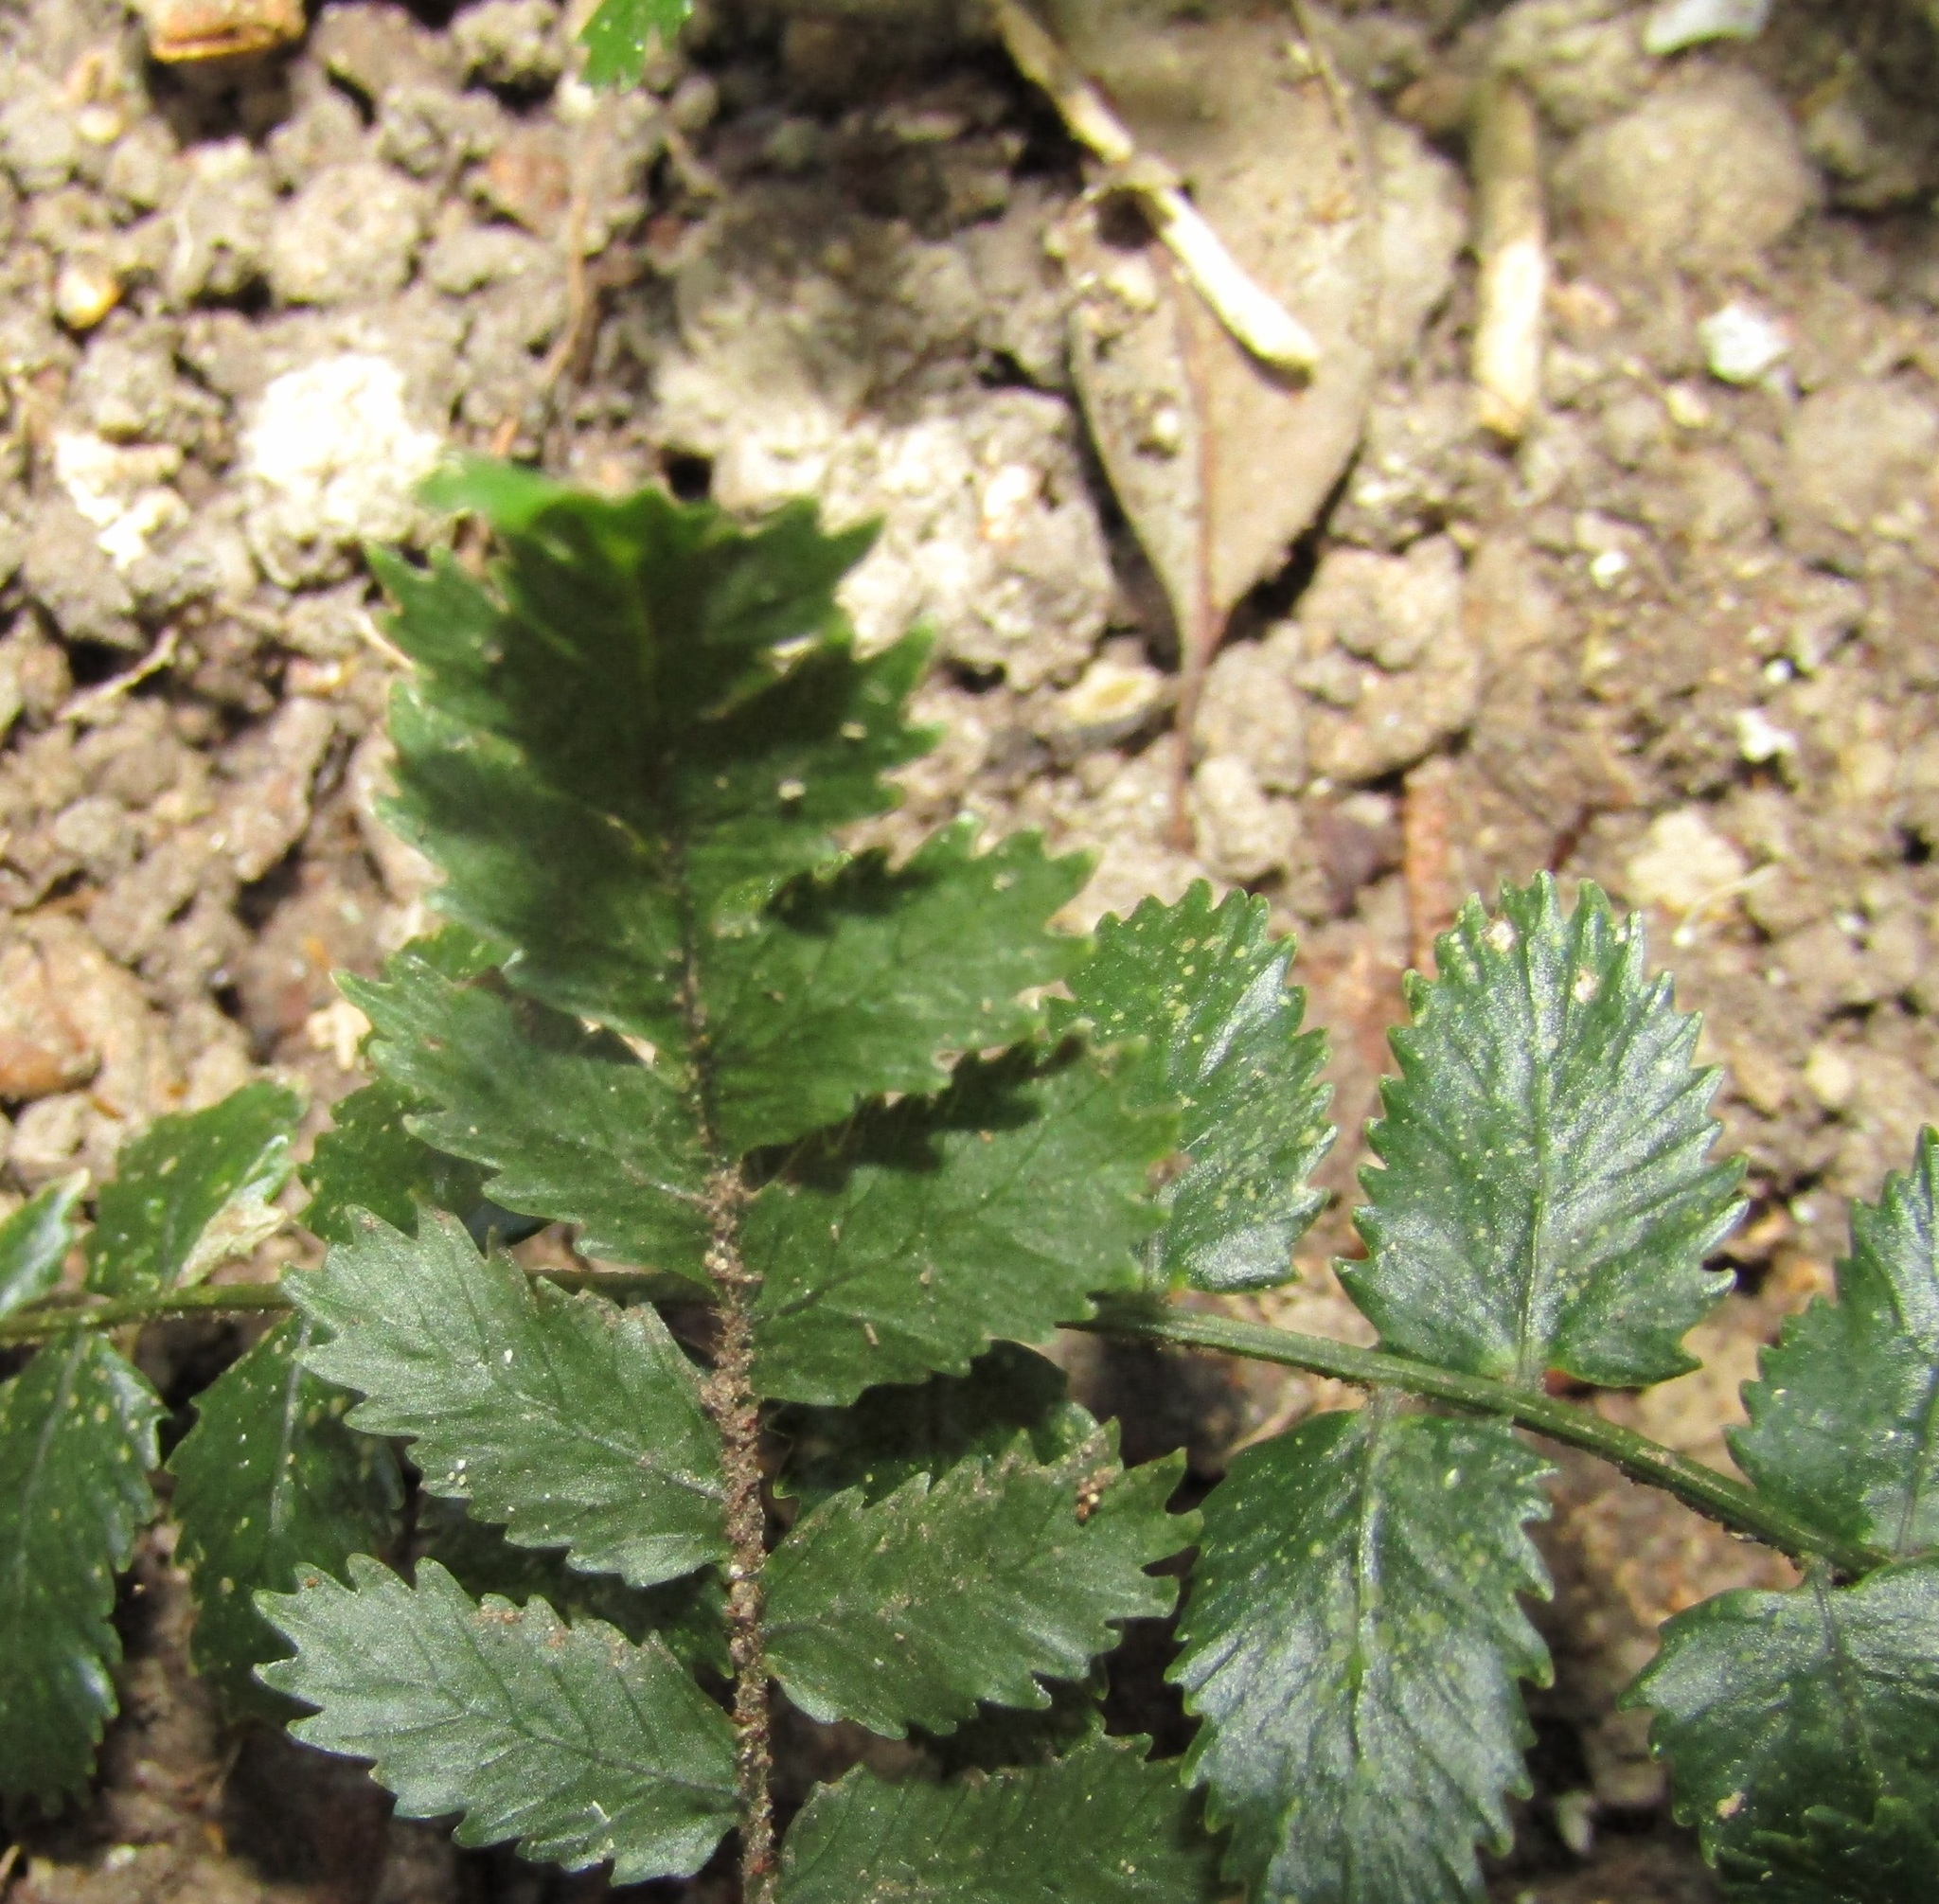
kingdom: Plantae
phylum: Tracheophyta
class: Polypodiopsida
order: Polypodiales
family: Blechnaceae
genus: Icarus
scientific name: Icarus filiformis
